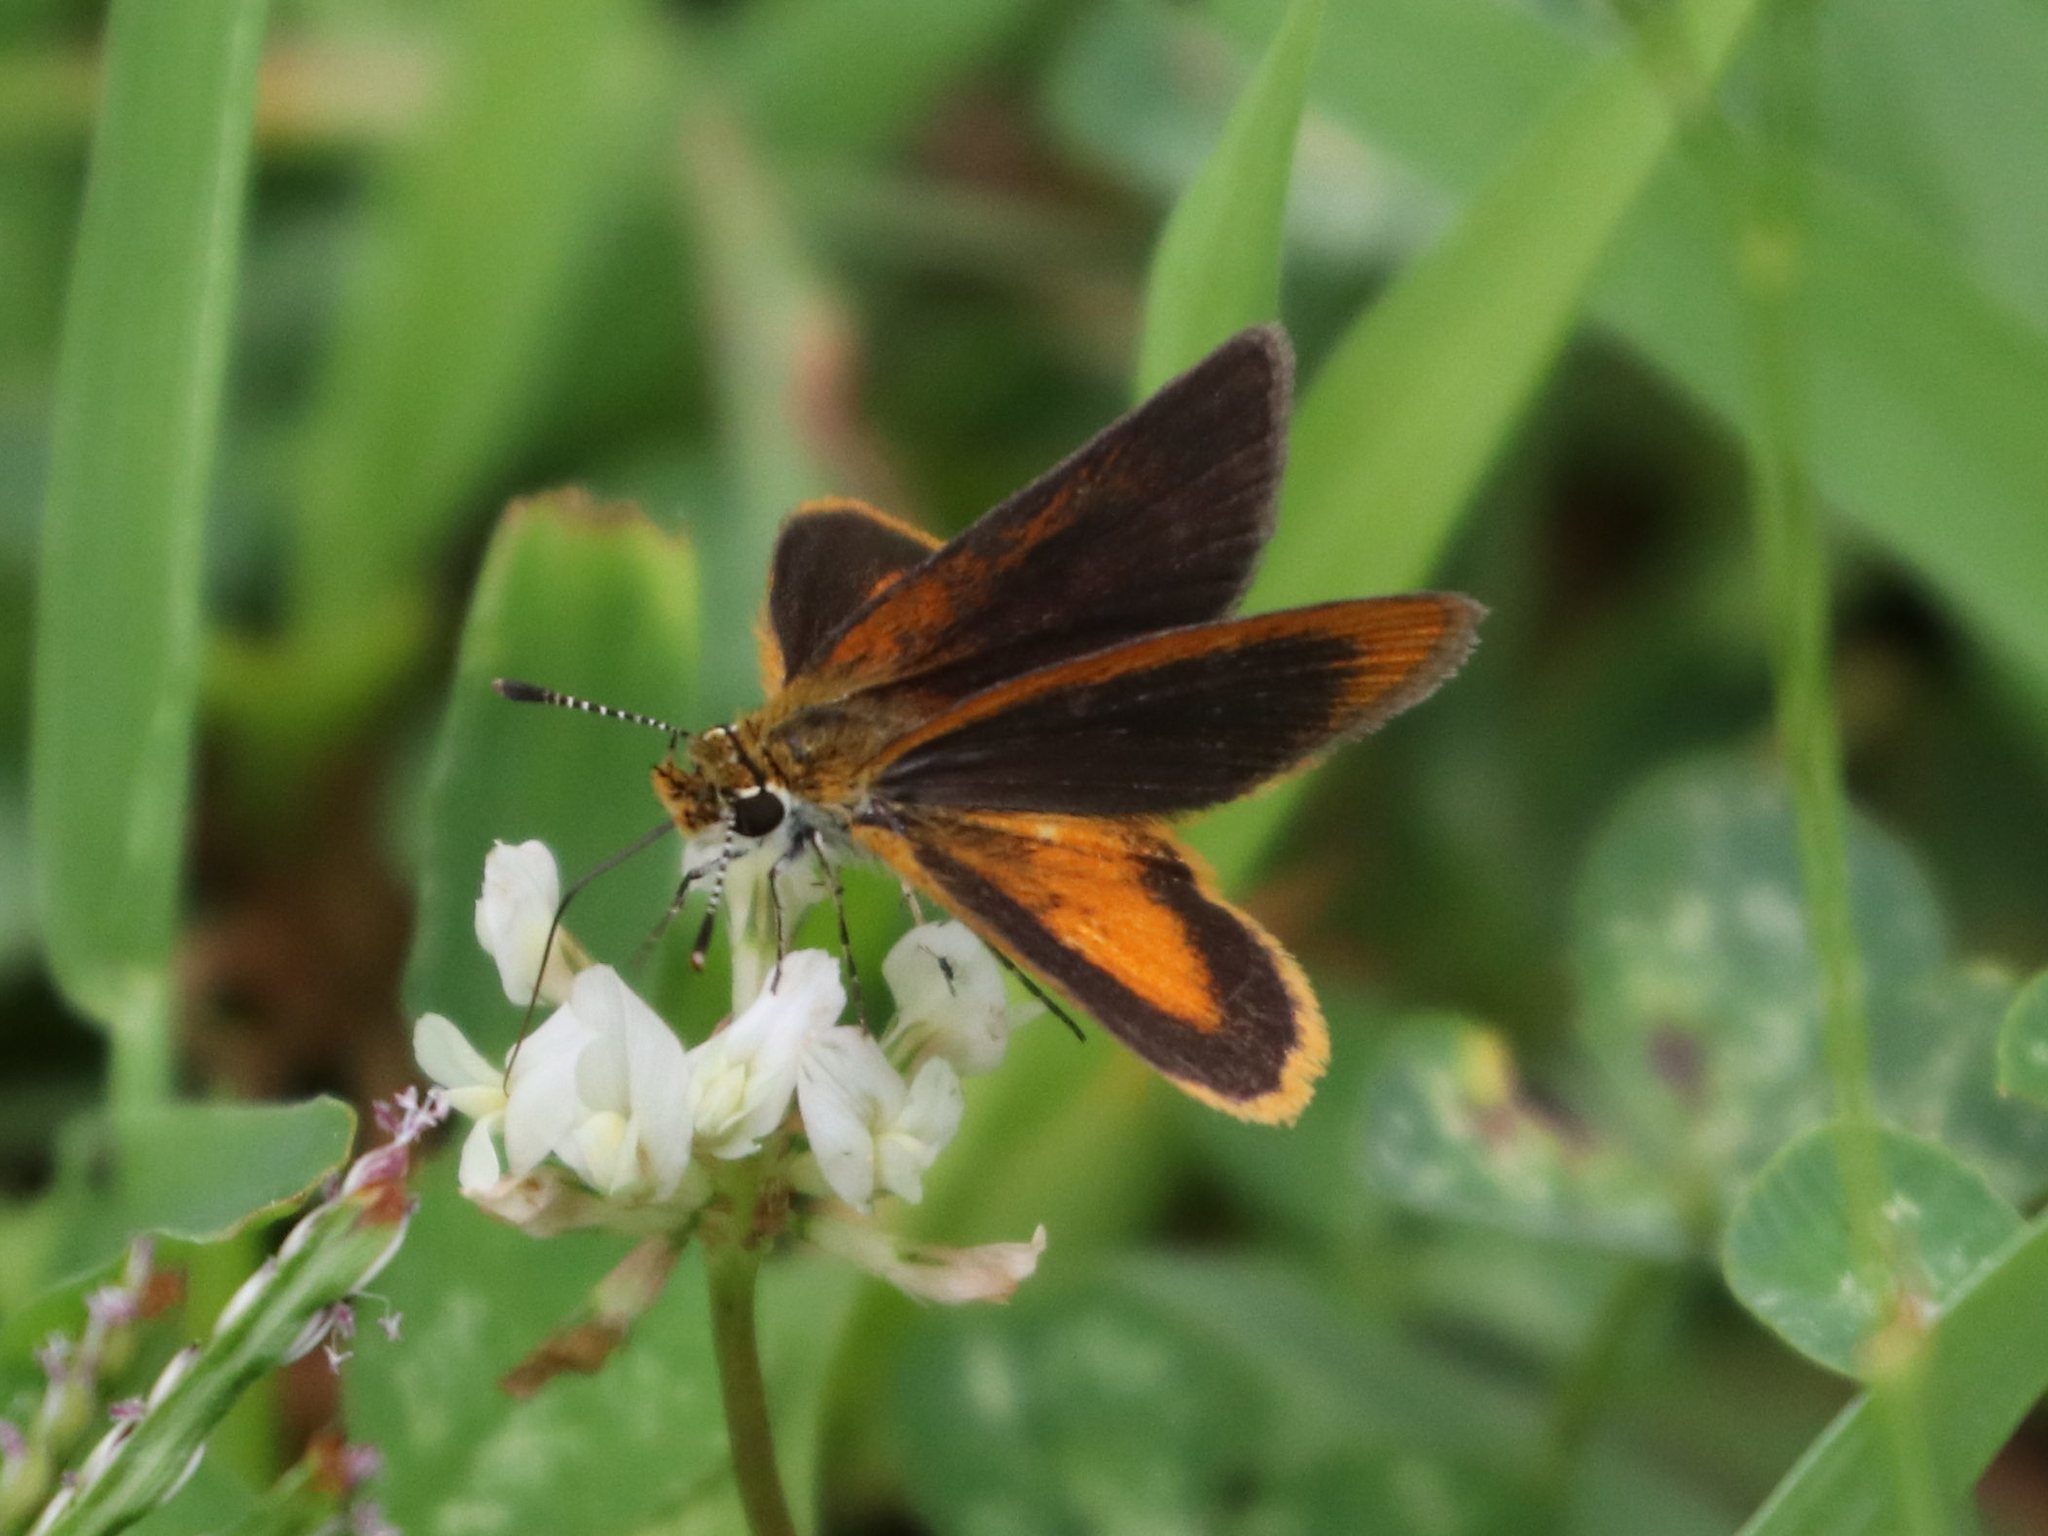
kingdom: Animalia
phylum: Arthropoda
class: Insecta
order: Lepidoptera
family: Hesperiidae
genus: Ancyloxypha
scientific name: Ancyloxypha numitor
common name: Least skipper
